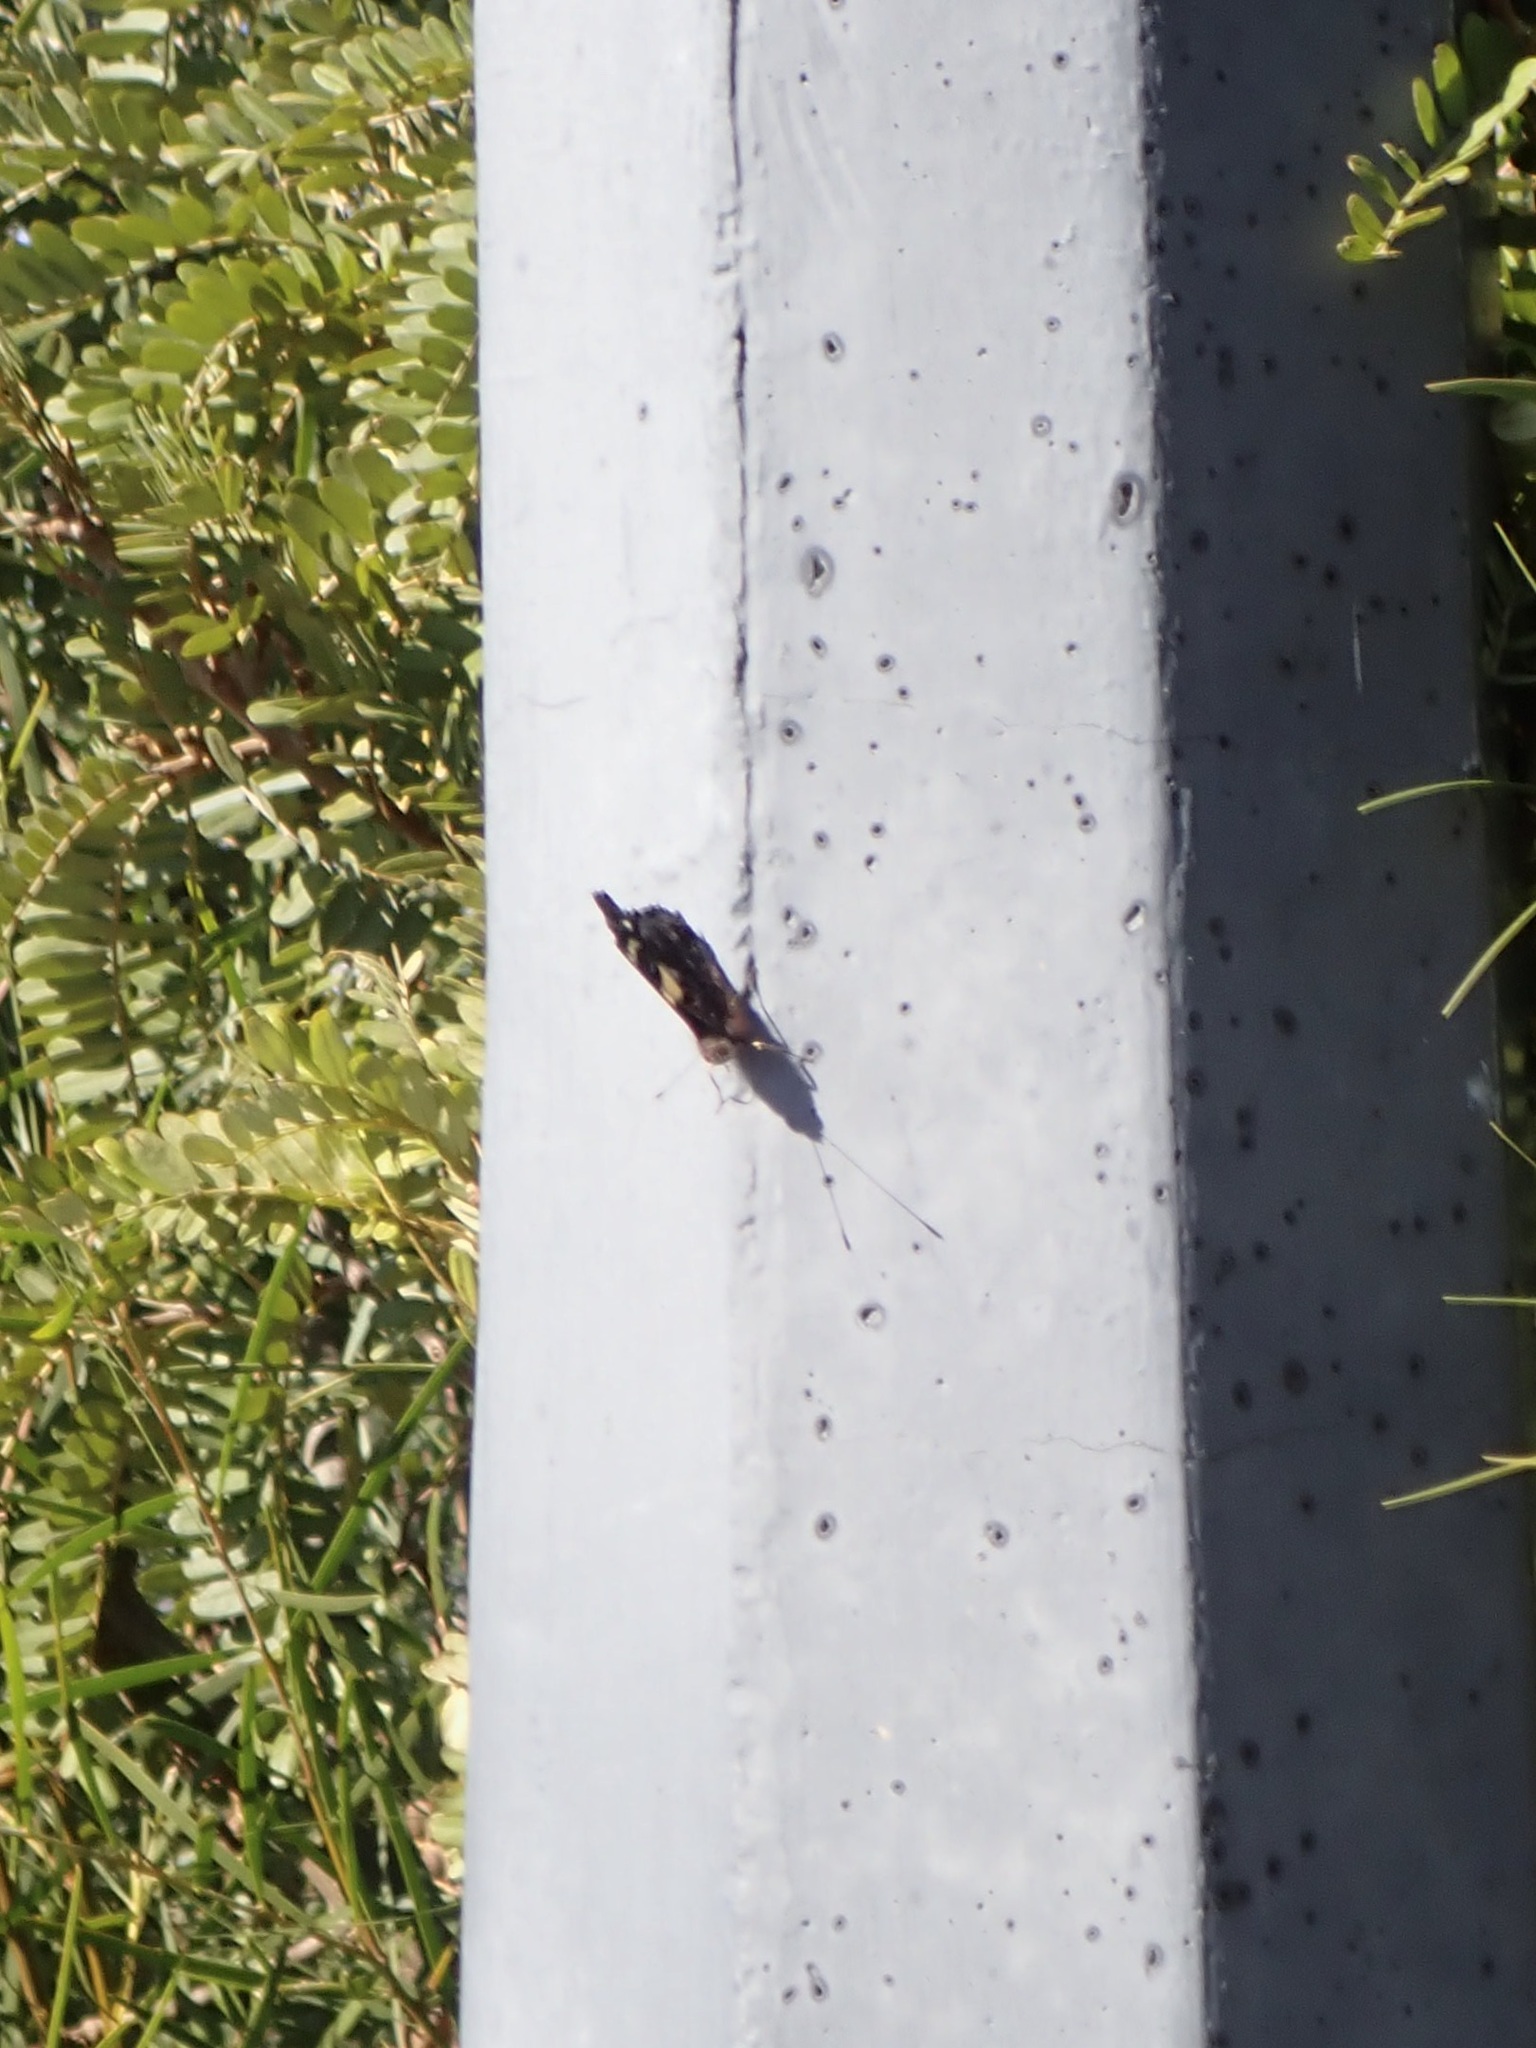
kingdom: Animalia
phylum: Arthropoda
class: Insecta
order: Lepidoptera
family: Nymphalidae
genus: Vanessa
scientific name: Vanessa itea
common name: Yellow admiral
